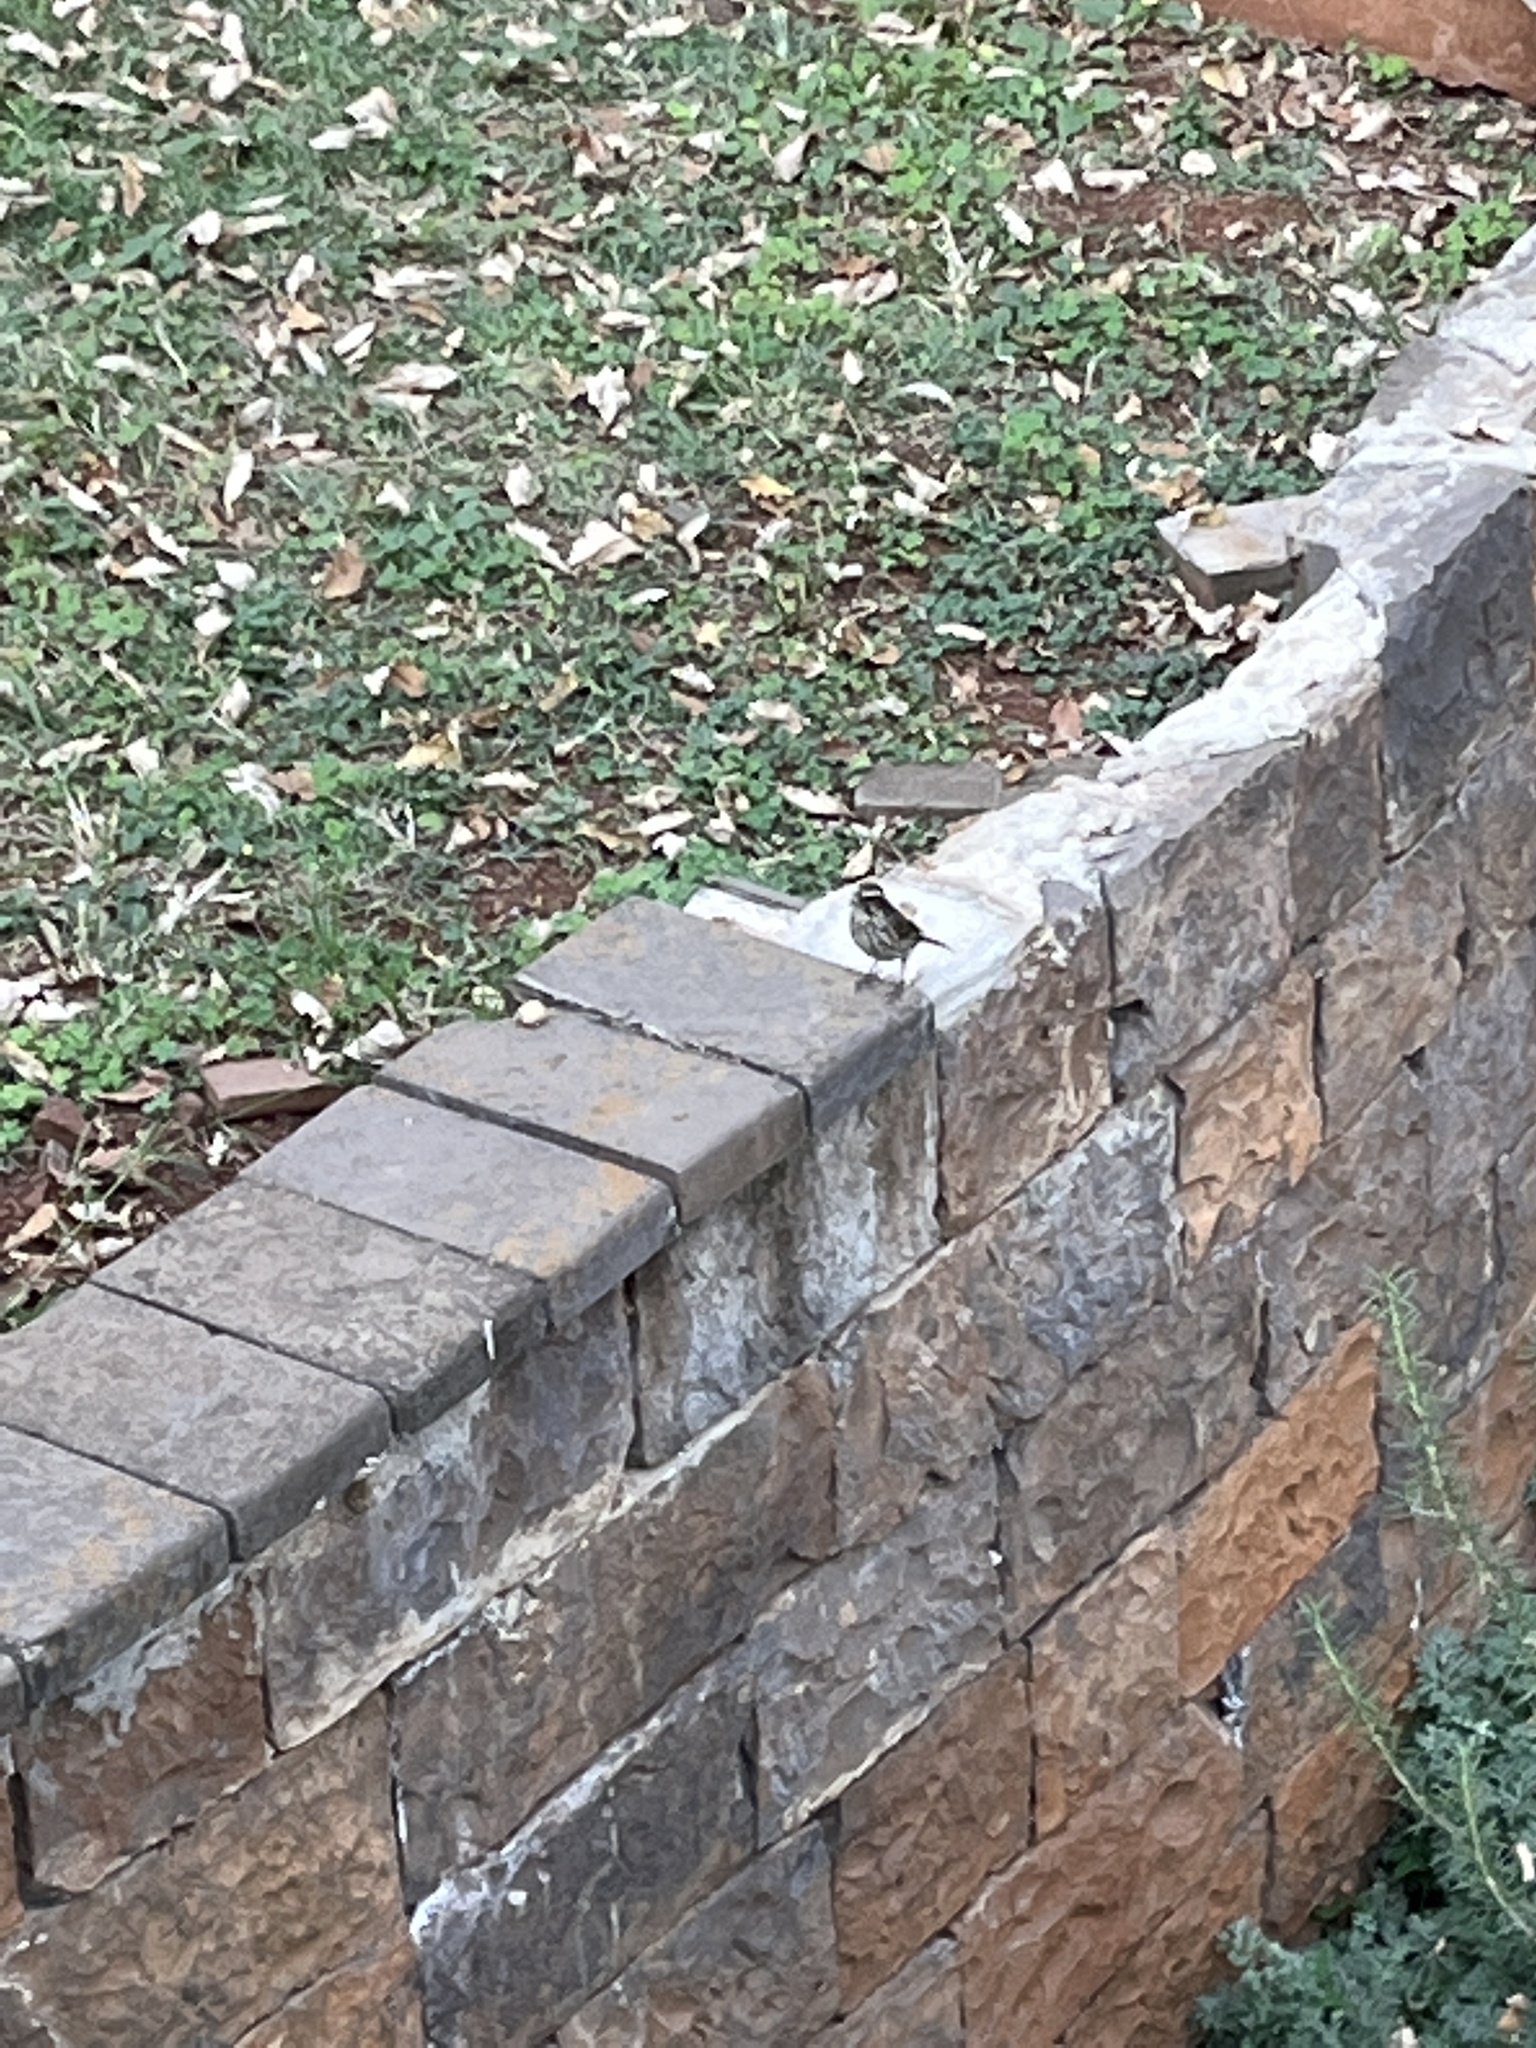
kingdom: Animalia
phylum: Chordata
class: Aves
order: Passeriformes
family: Fringillidae
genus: Crithagra
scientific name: Crithagra striolata
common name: Streaky seedeater
